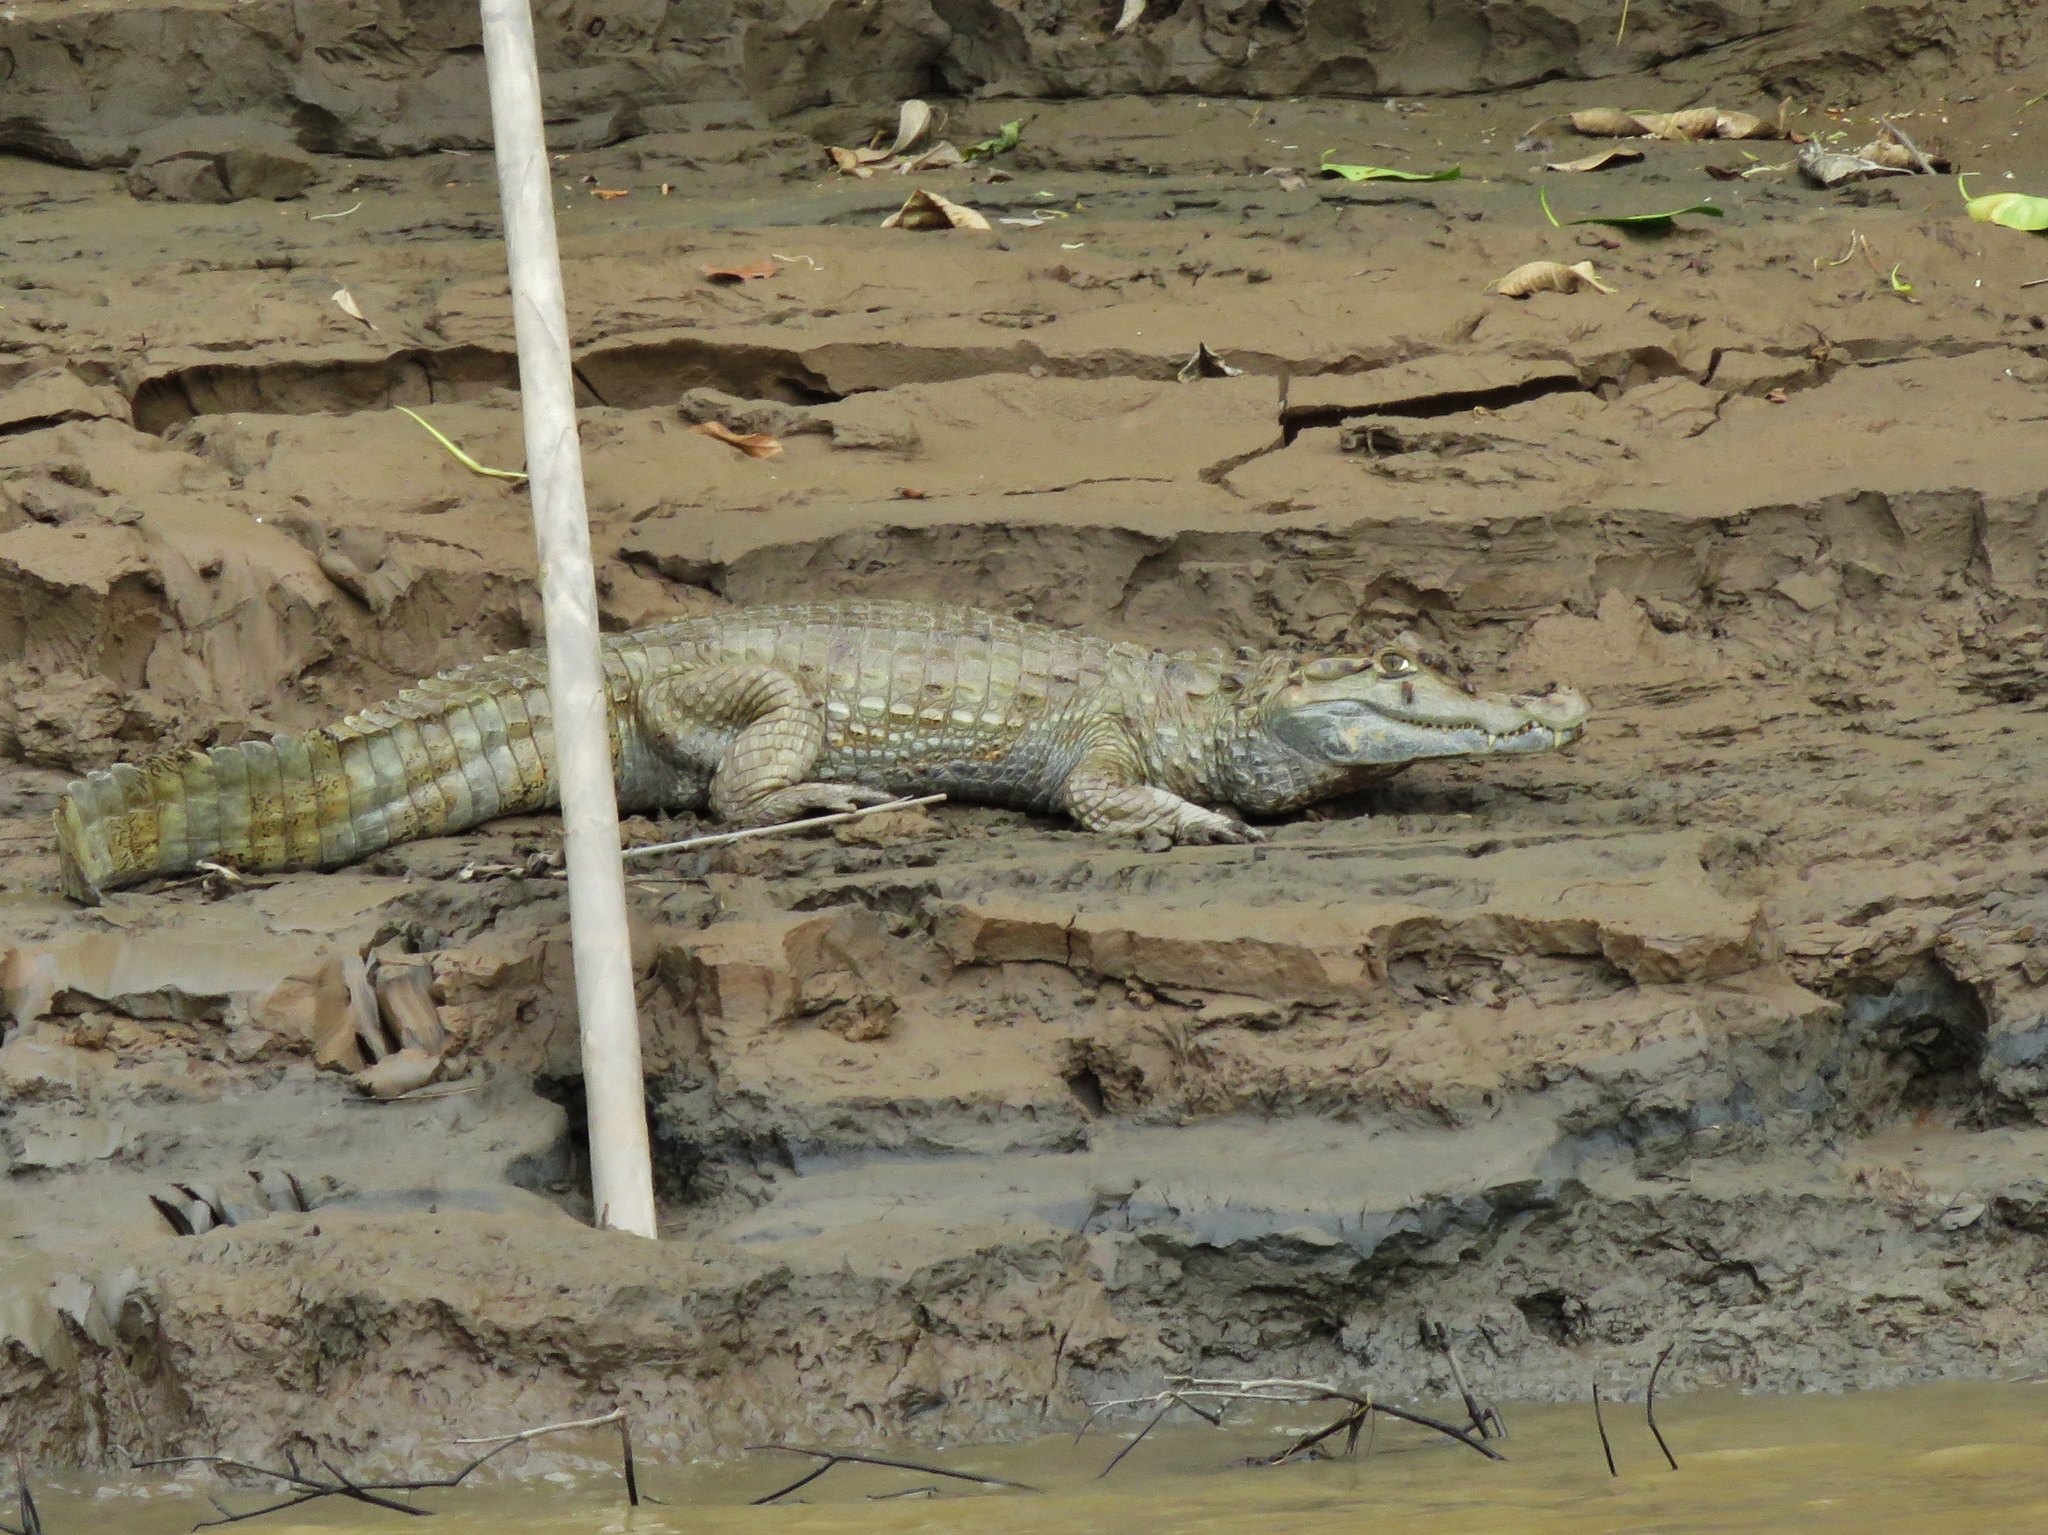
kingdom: Animalia
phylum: Chordata
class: Crocodylia
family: Alligatoridae
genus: Caiman
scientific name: Caiman crocodilus
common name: Common caiman
